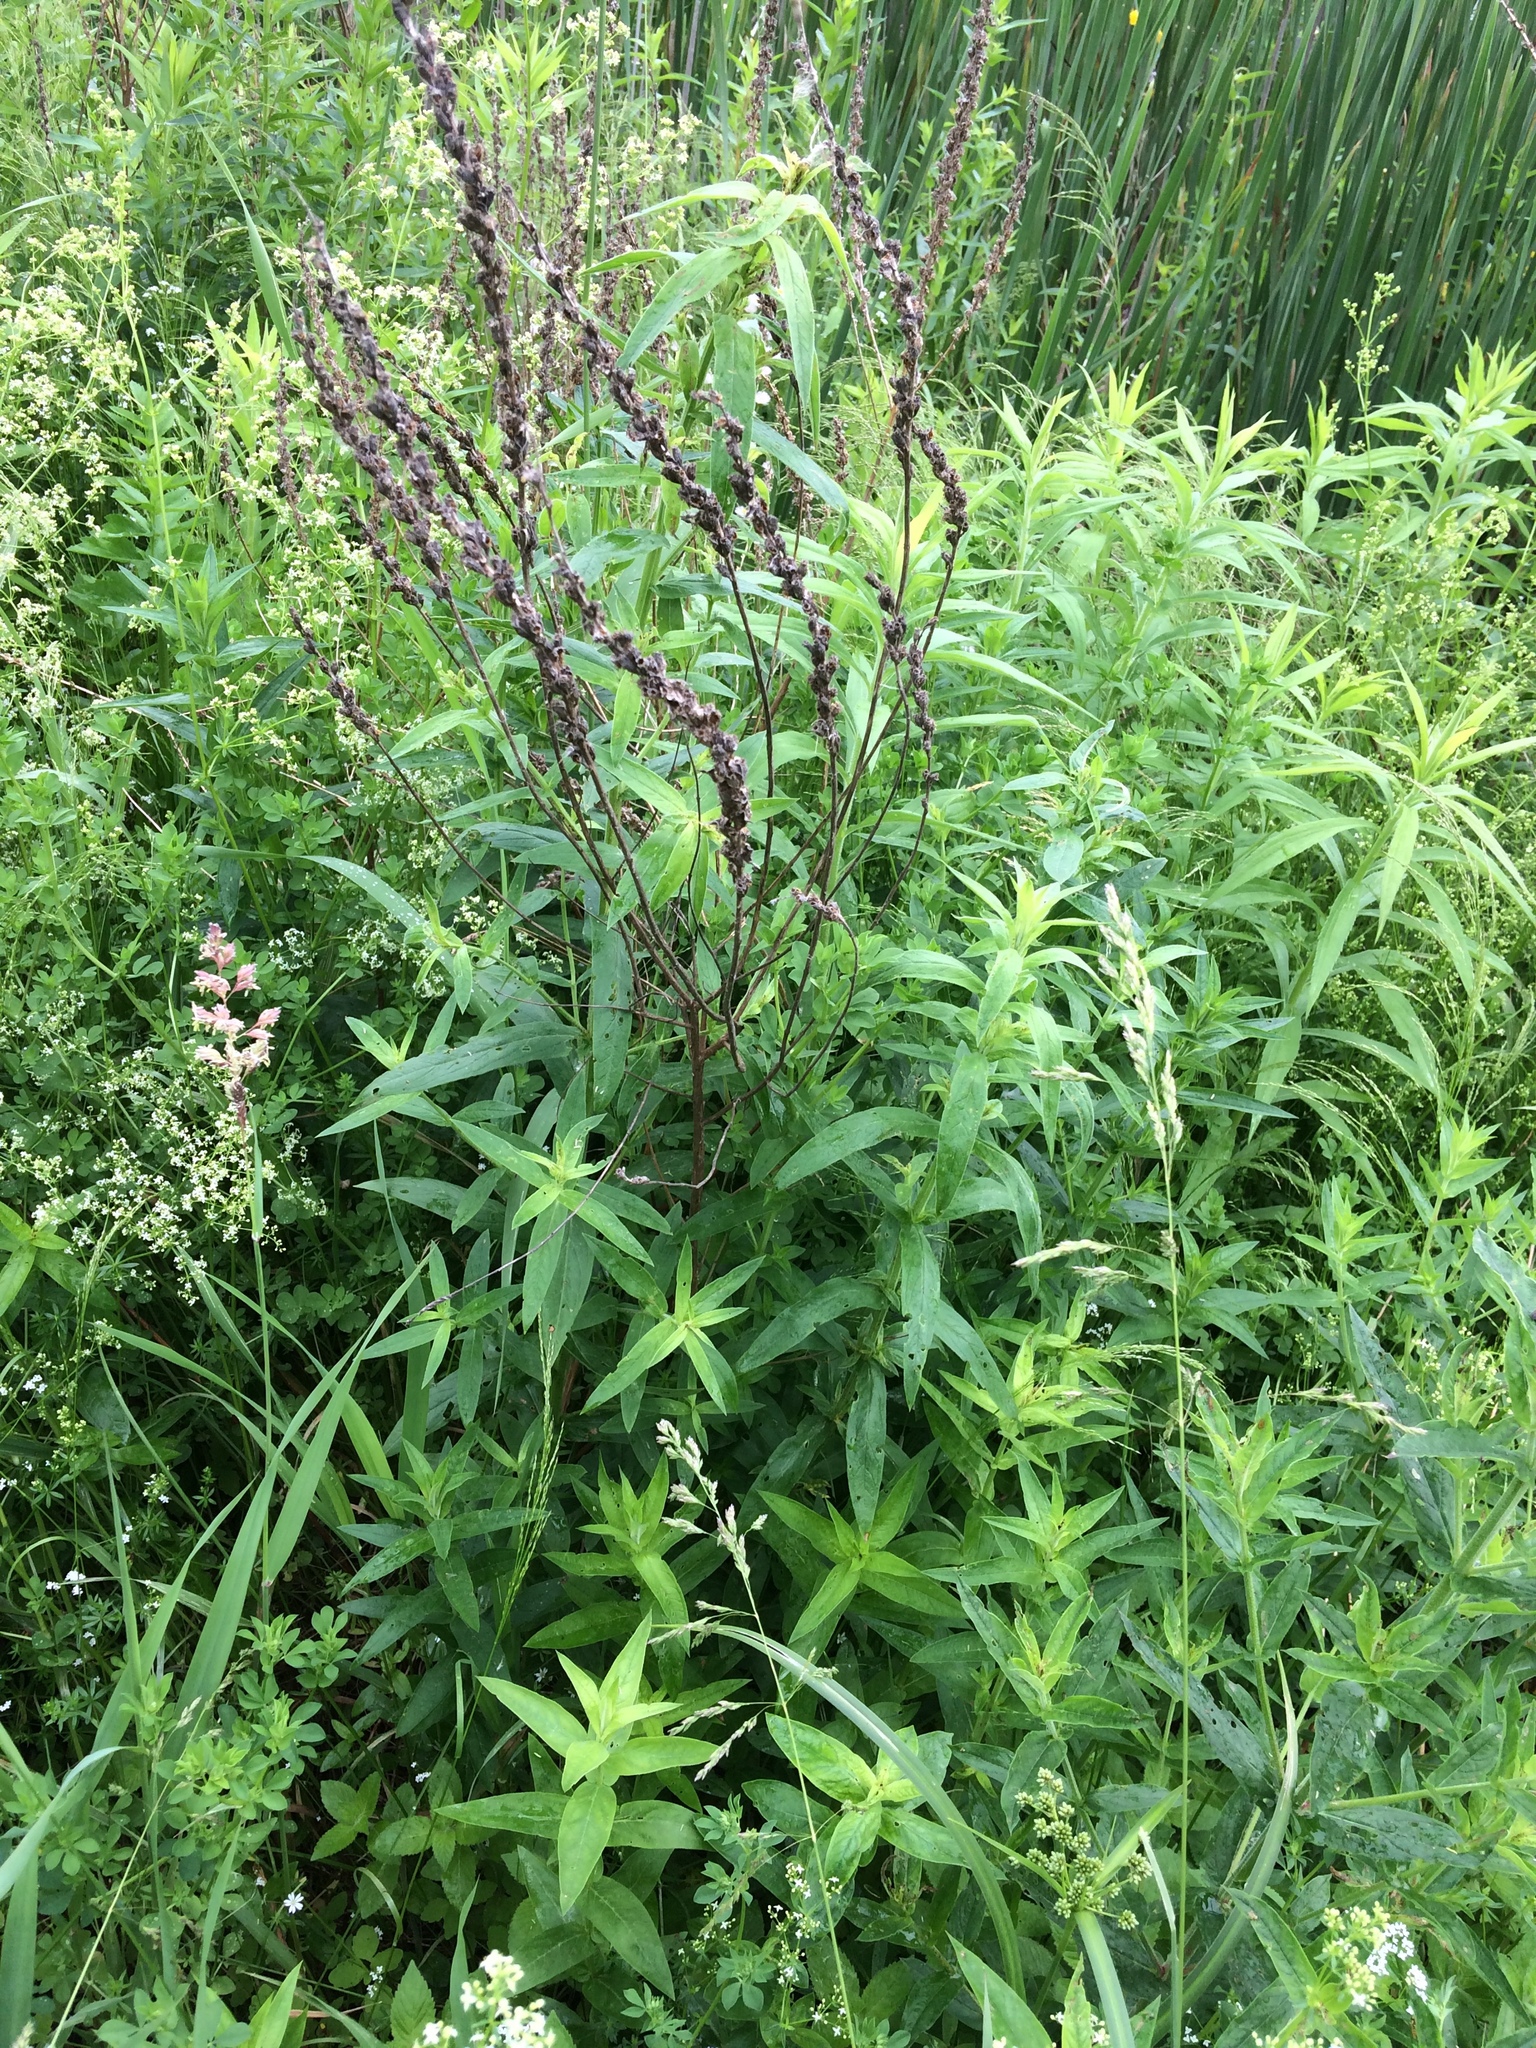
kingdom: Plantae
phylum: Tracheophyta
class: Magnoliopsida
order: Myrtales
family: Lythraceae
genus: Lythrum
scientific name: Lythrum salicaria
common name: Purple loosestrife
